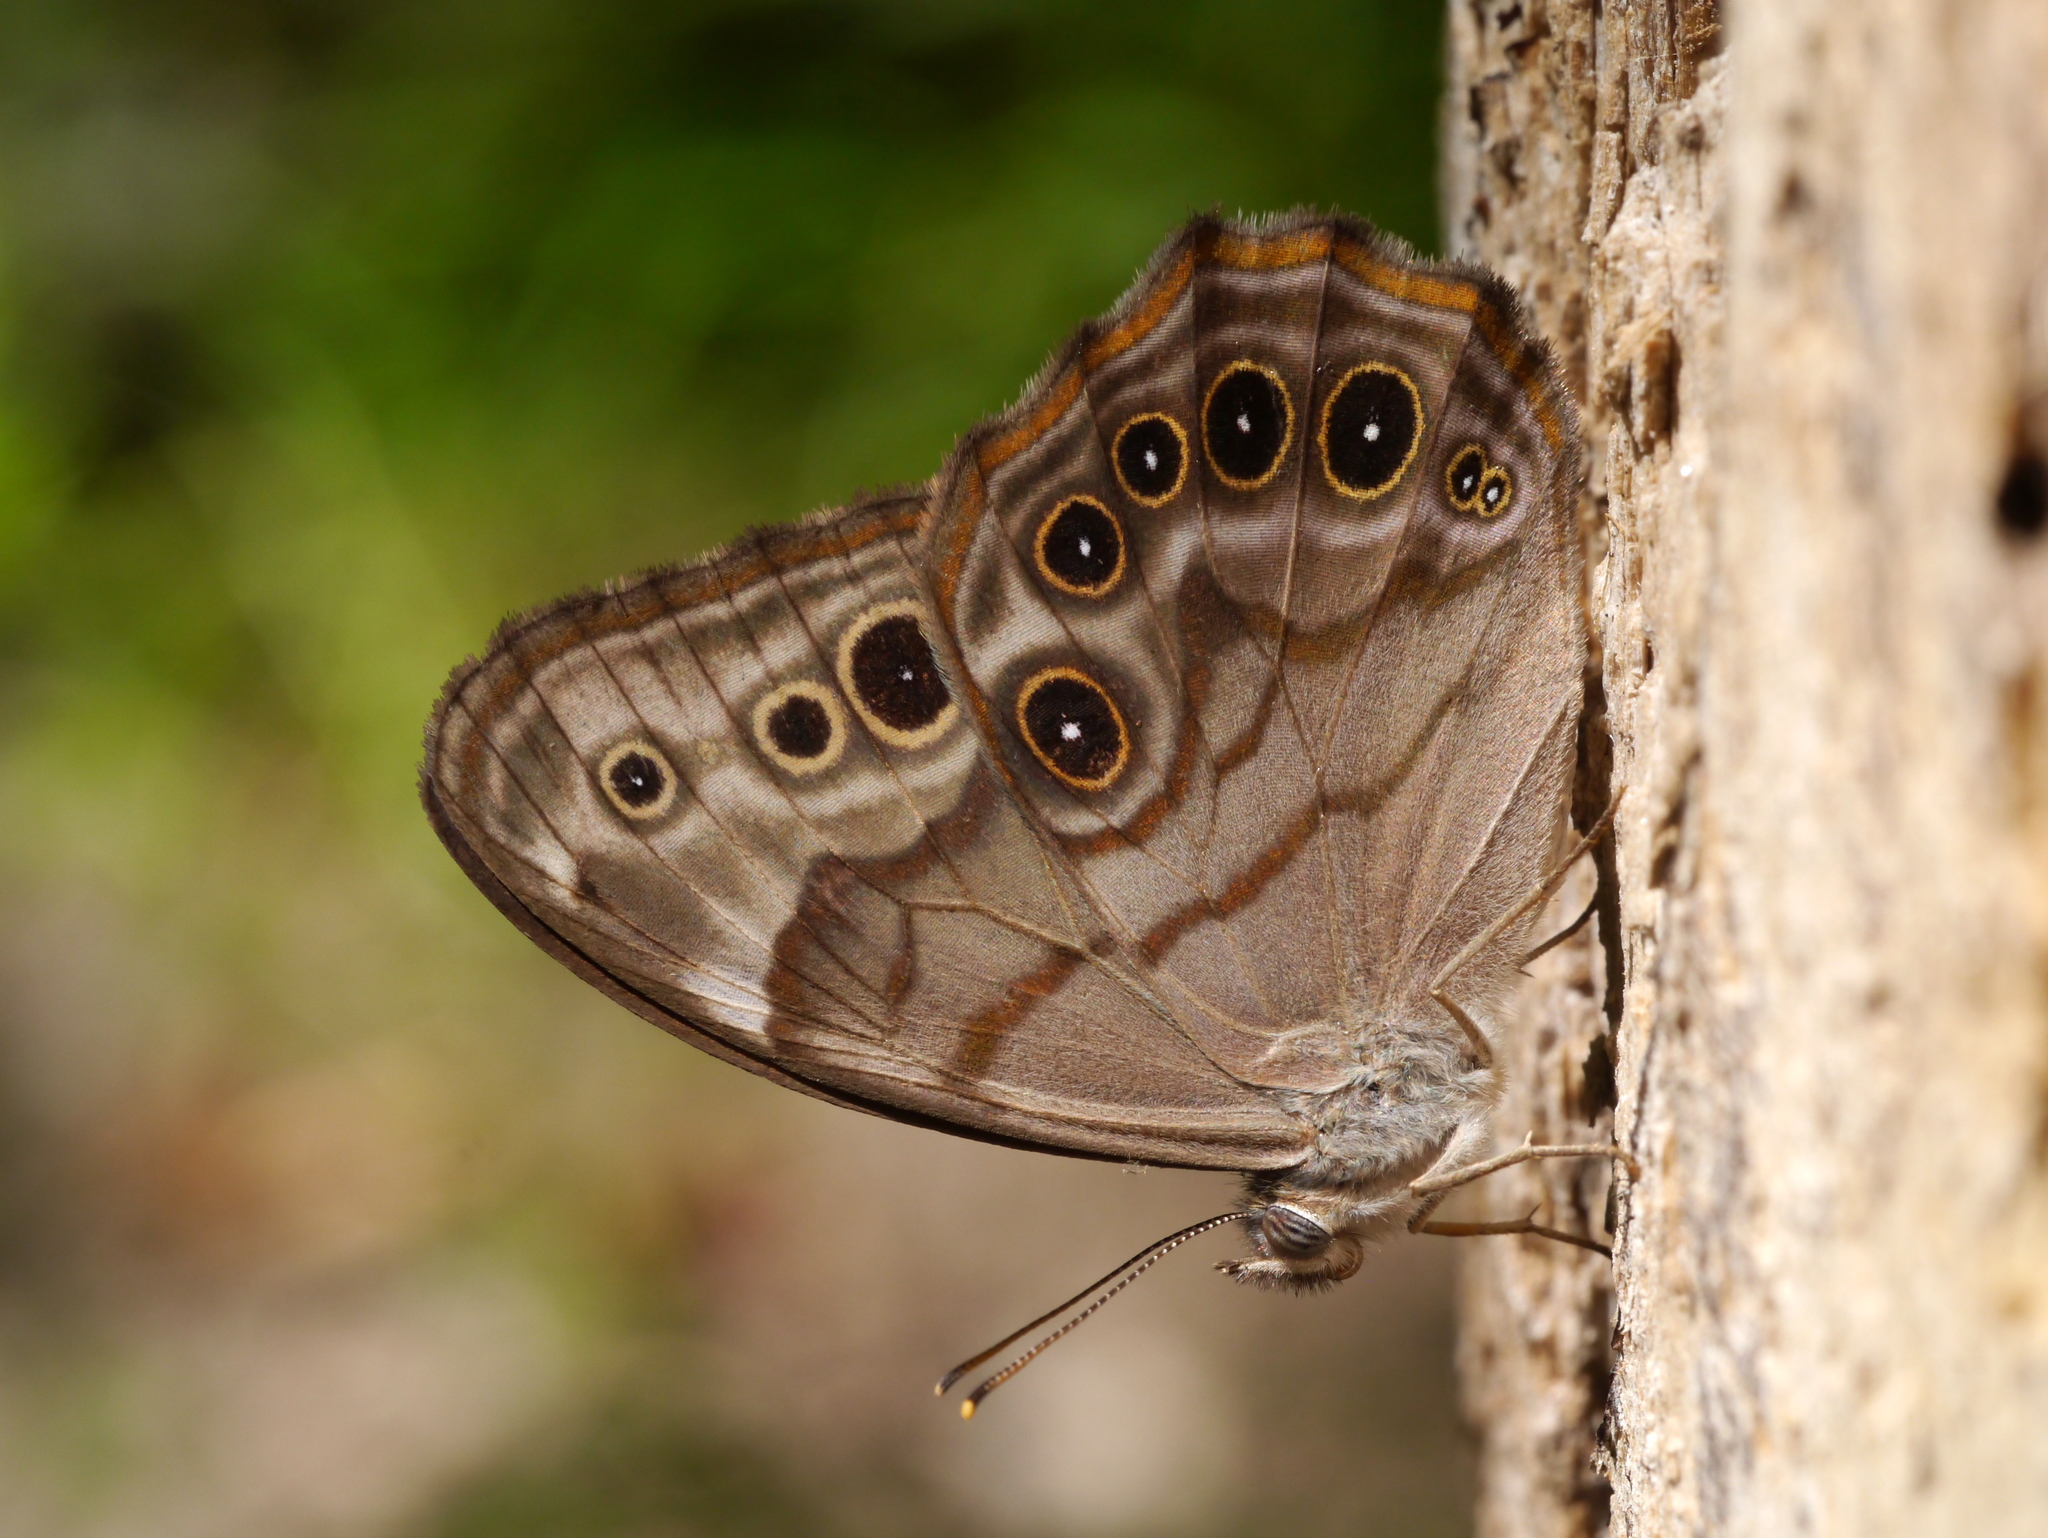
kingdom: Animalia
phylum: Arthropoda
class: Insecta
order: Lepidoptera
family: Nymphalidae
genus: Lethe
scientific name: Lethe anthedon
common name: Northern pearly-eye
